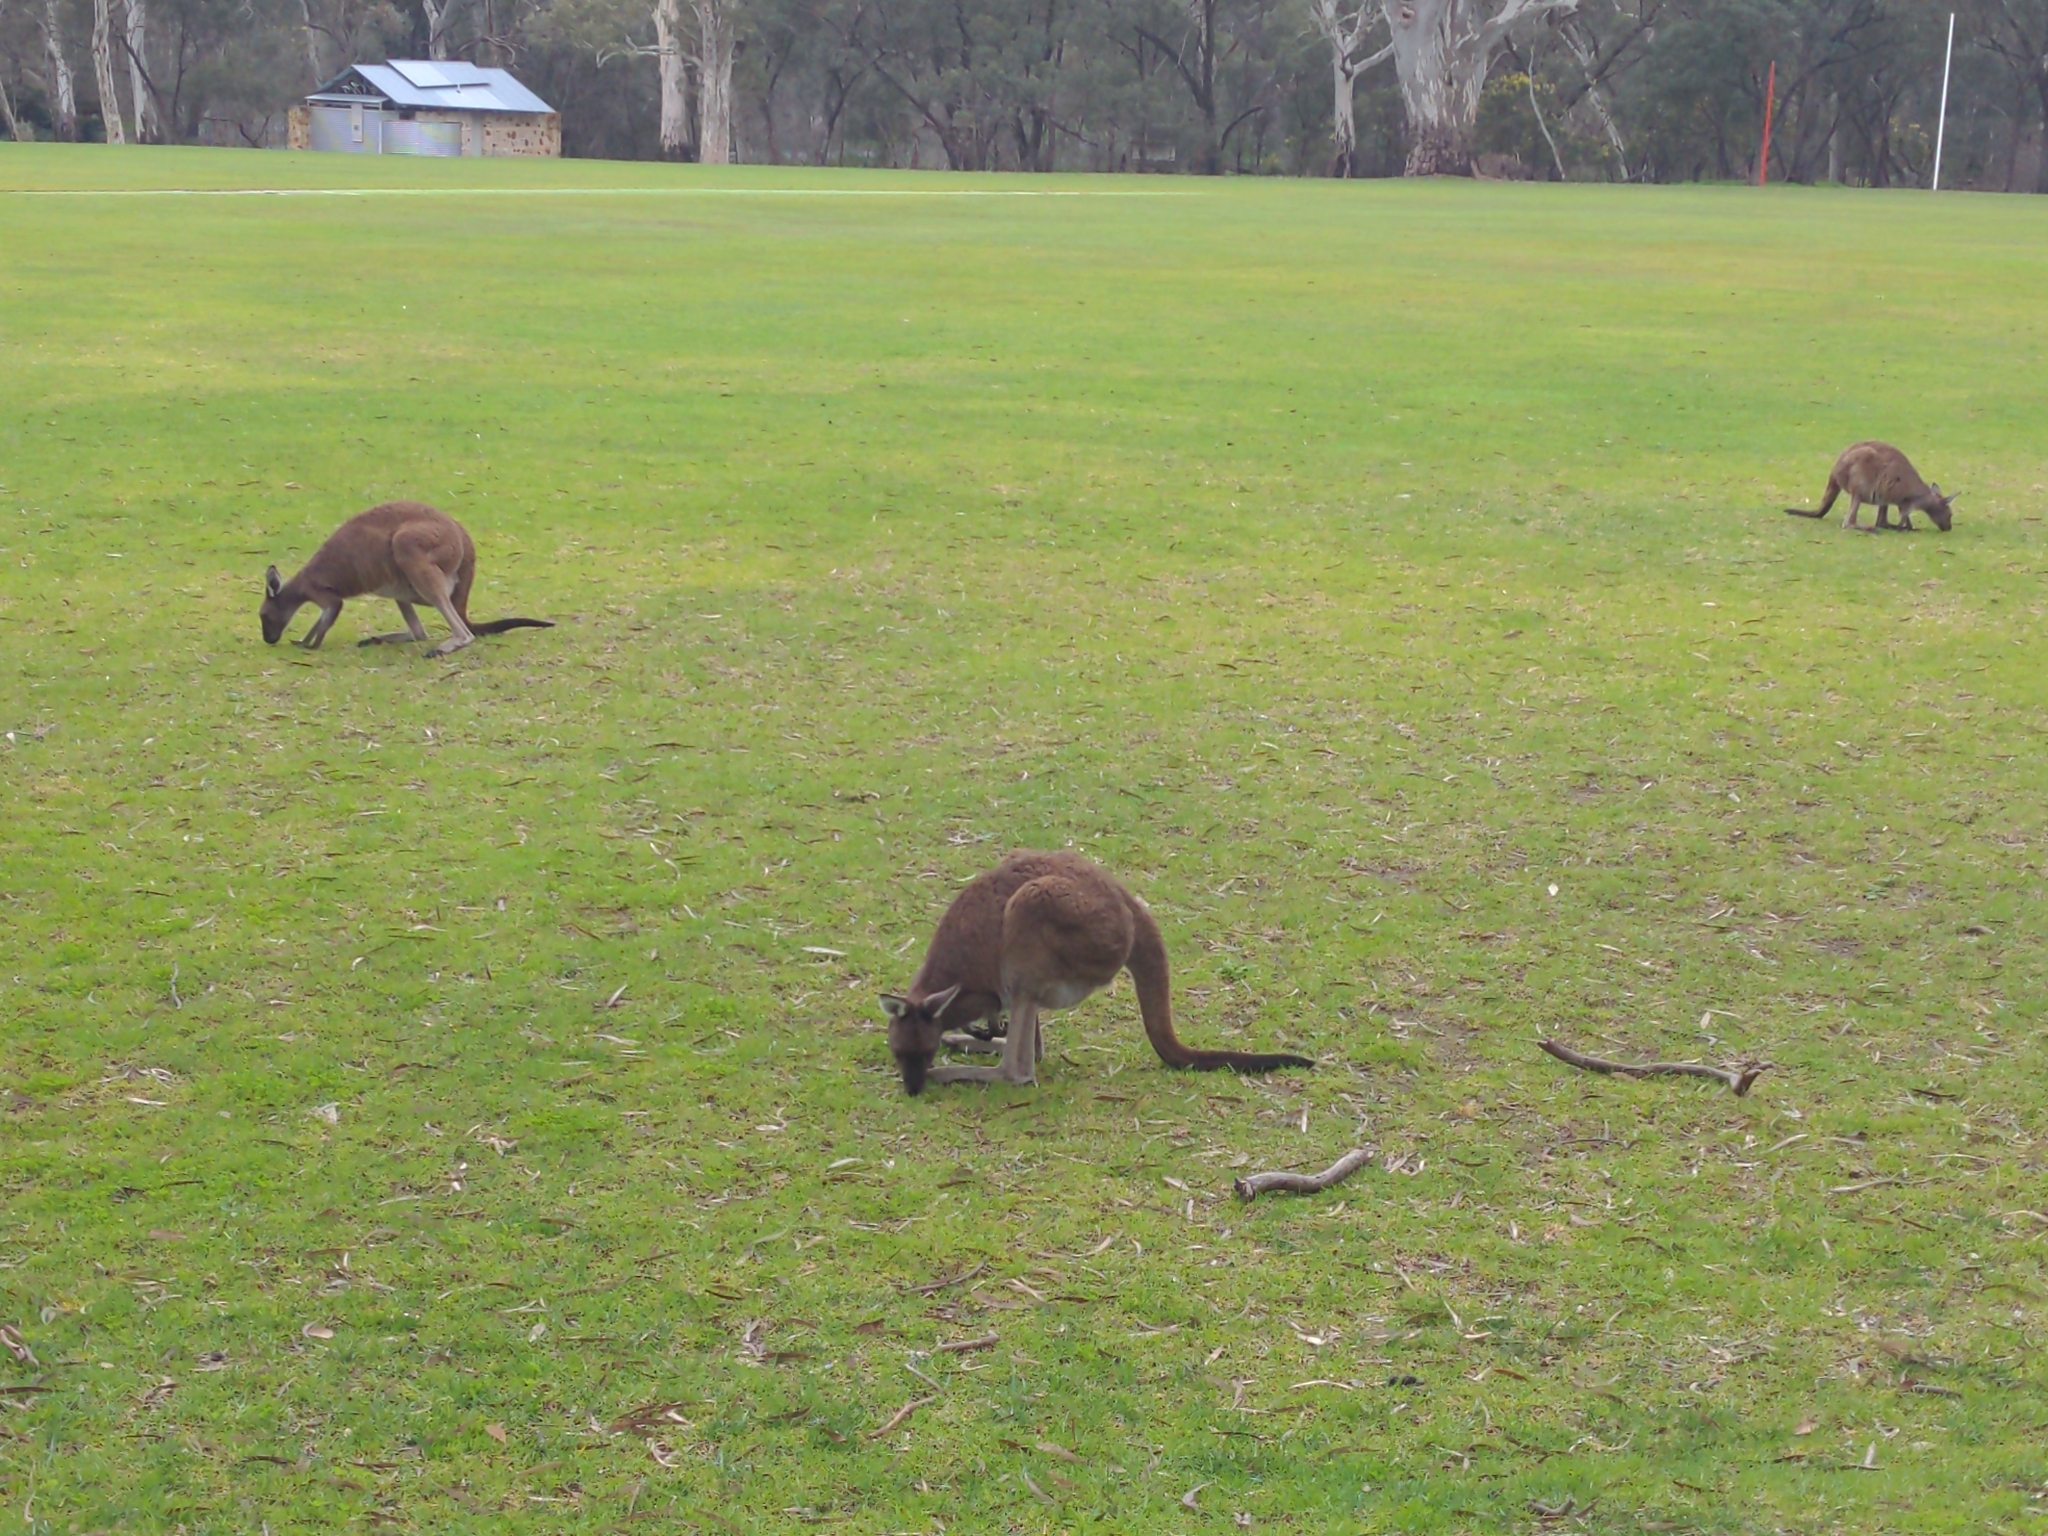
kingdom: Animalia
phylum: Chordata
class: Mammalia
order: Diprotodontia
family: Macropodidae
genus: Macropus
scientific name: Macropus fuliginosus
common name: Western grey kangaroo
